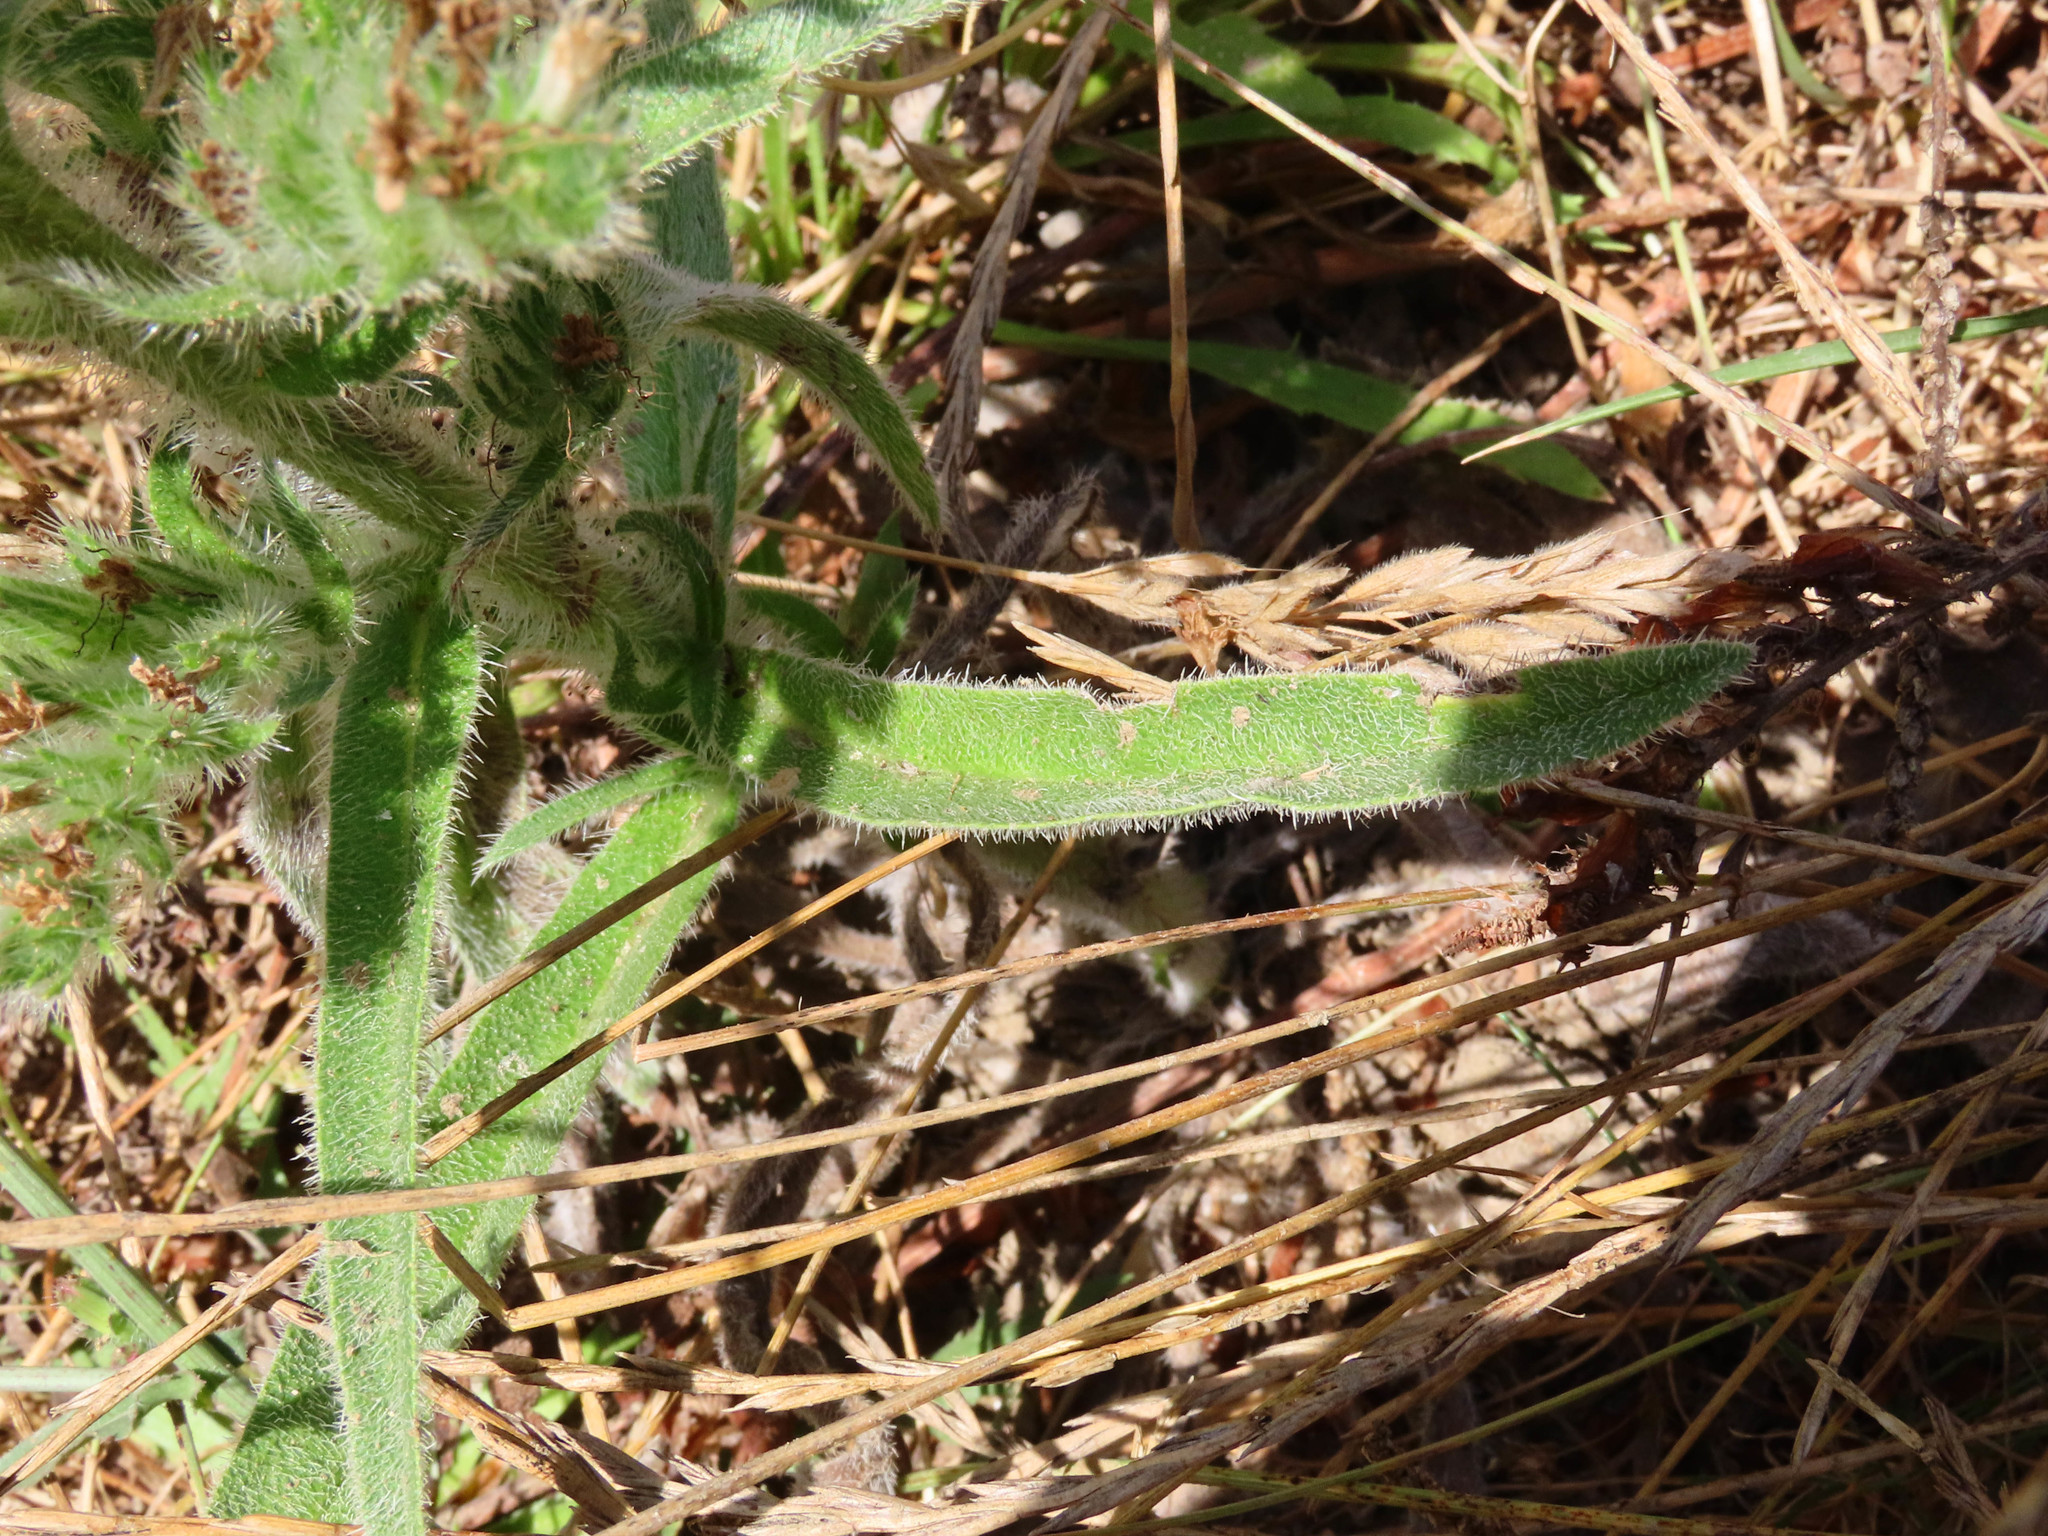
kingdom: Plantae
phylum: Tracheophyta
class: Magnoliopsida
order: Boraginales
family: Boraginaceae
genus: Echium
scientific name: Echium italicum
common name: Italian viper's bugloss
